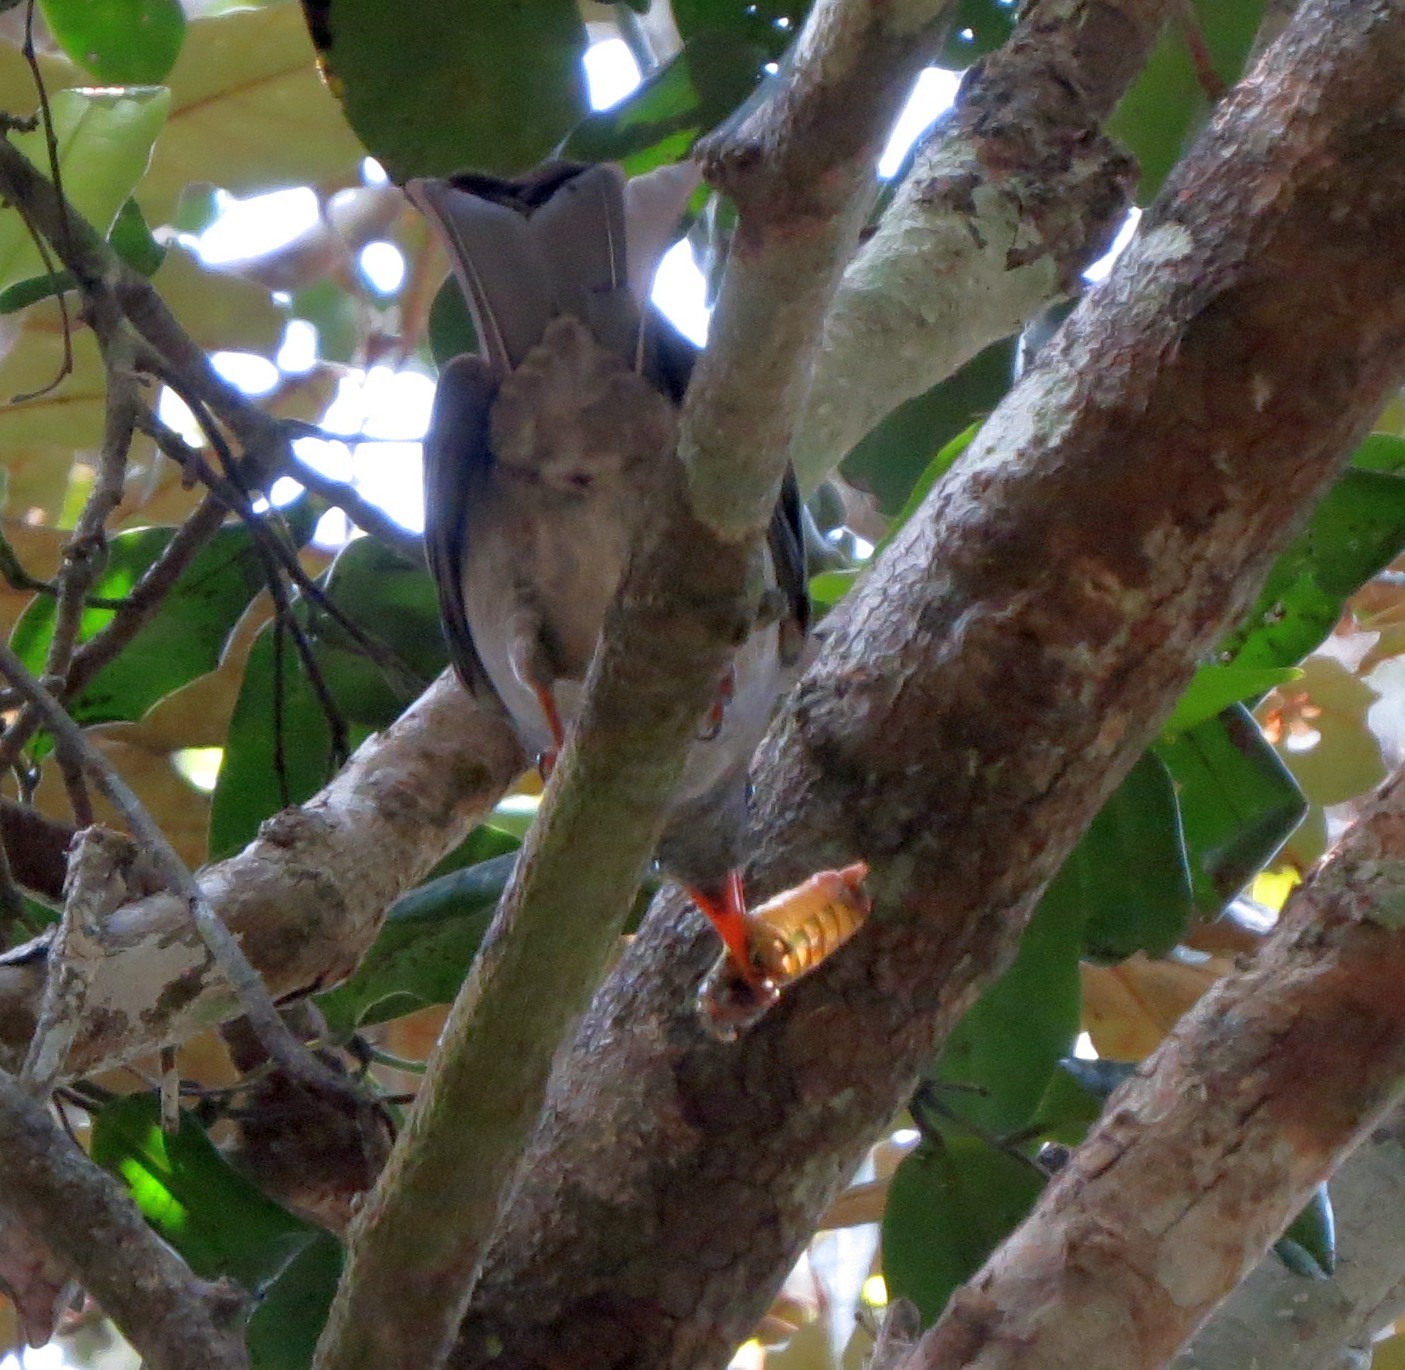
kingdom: Animalia
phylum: Chordata
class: Aves
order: Passeriformes
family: Pycnonotidae
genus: Hypsipetes
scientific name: Hypsipetes madagascariensis
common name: Malagasy bulbul
